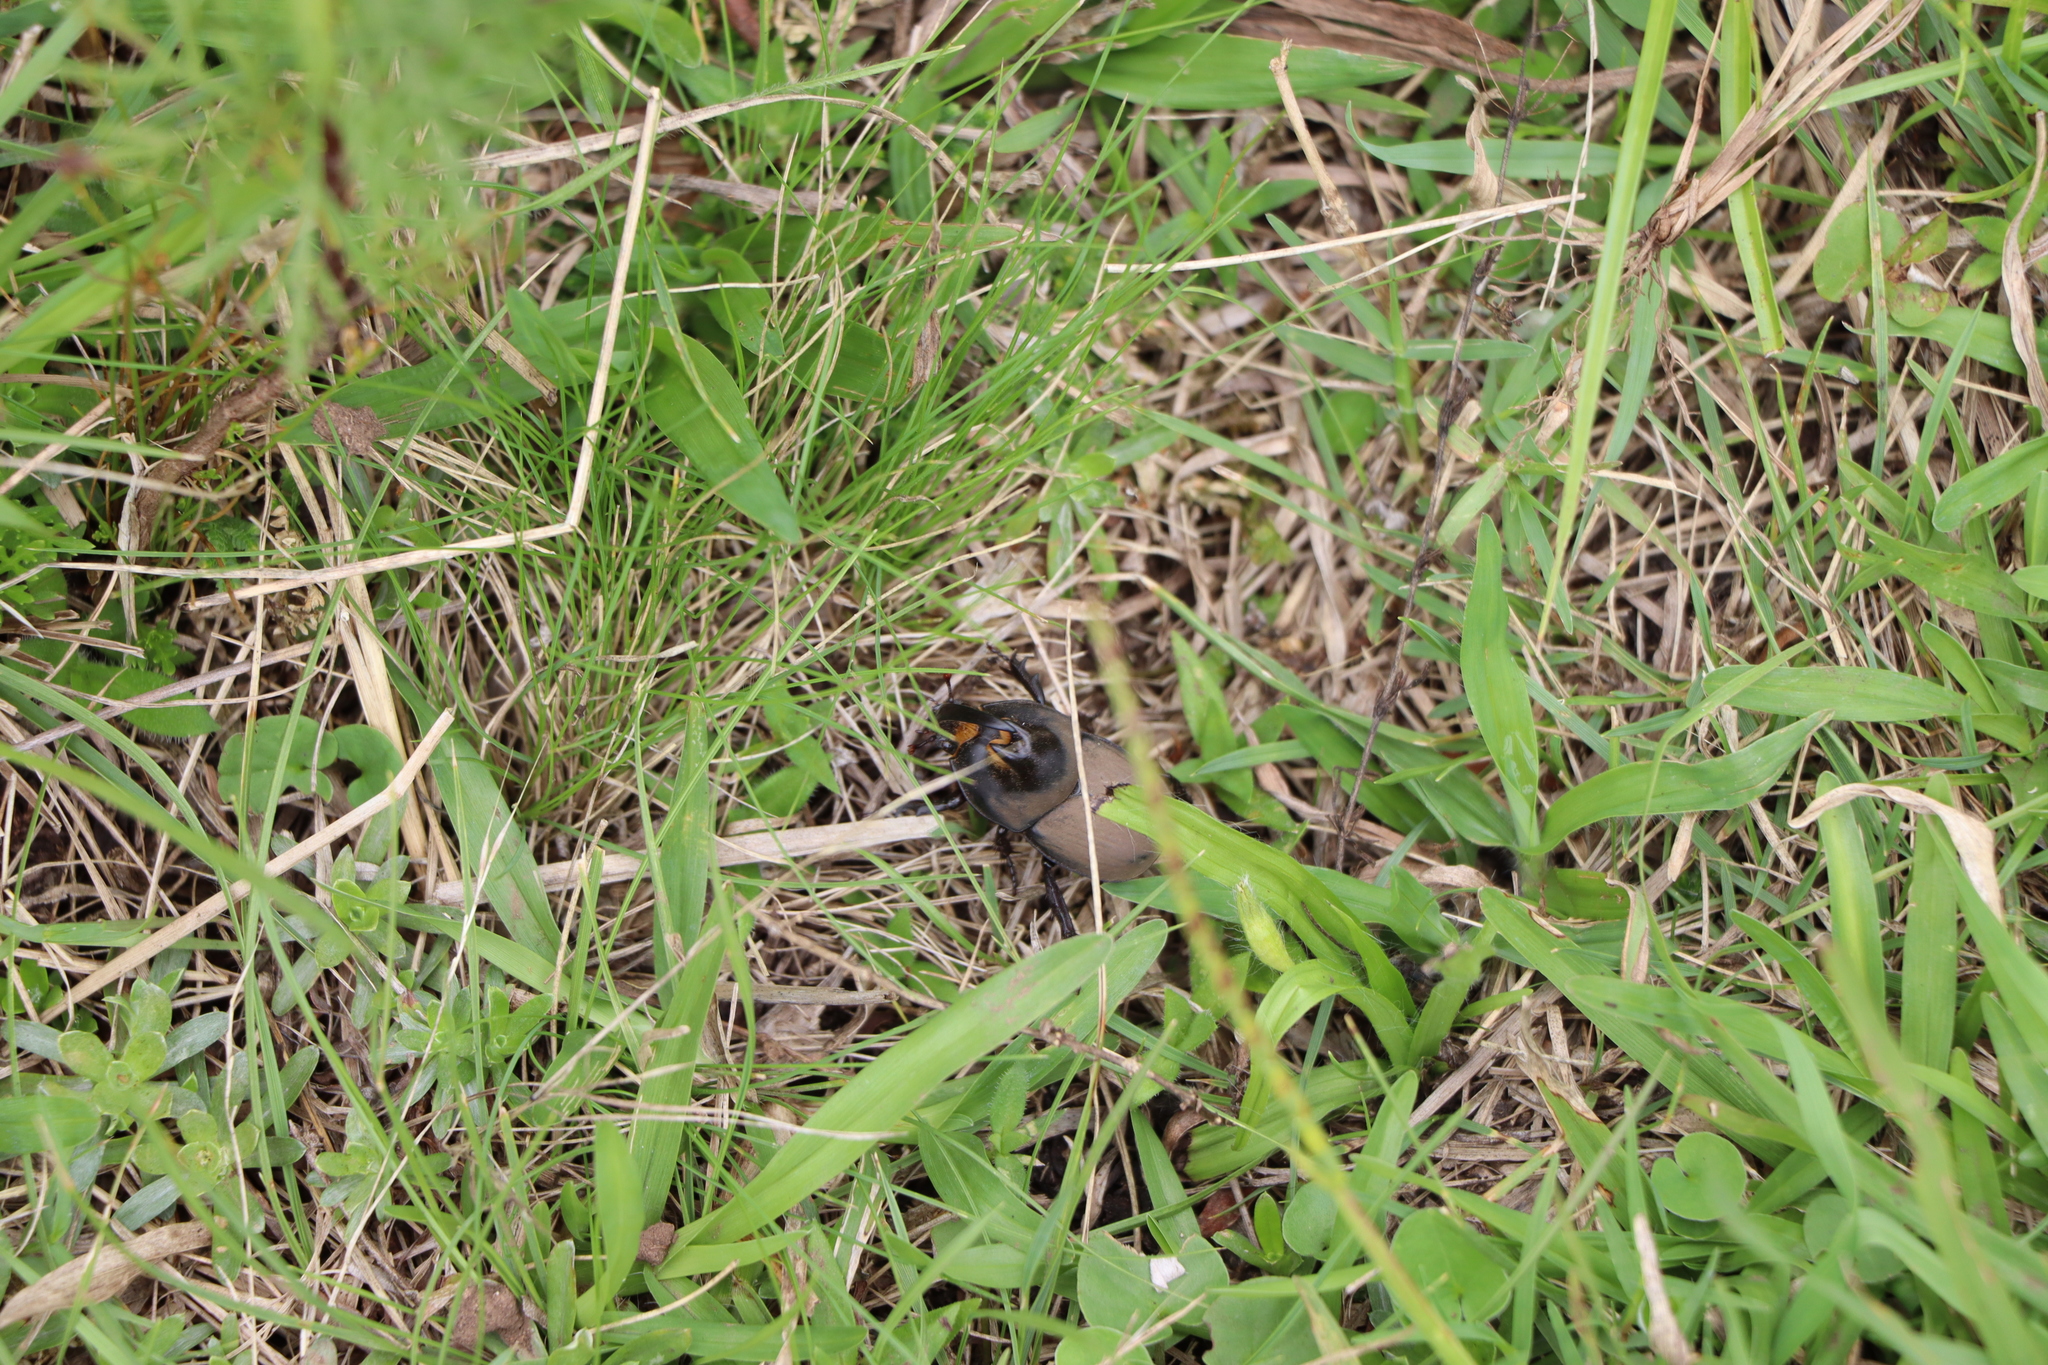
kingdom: Animalia
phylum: Arthropoda
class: Insecta
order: Coleoptera
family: Scarabaeidae
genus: Diloboderus
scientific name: Diloboderus abderus
